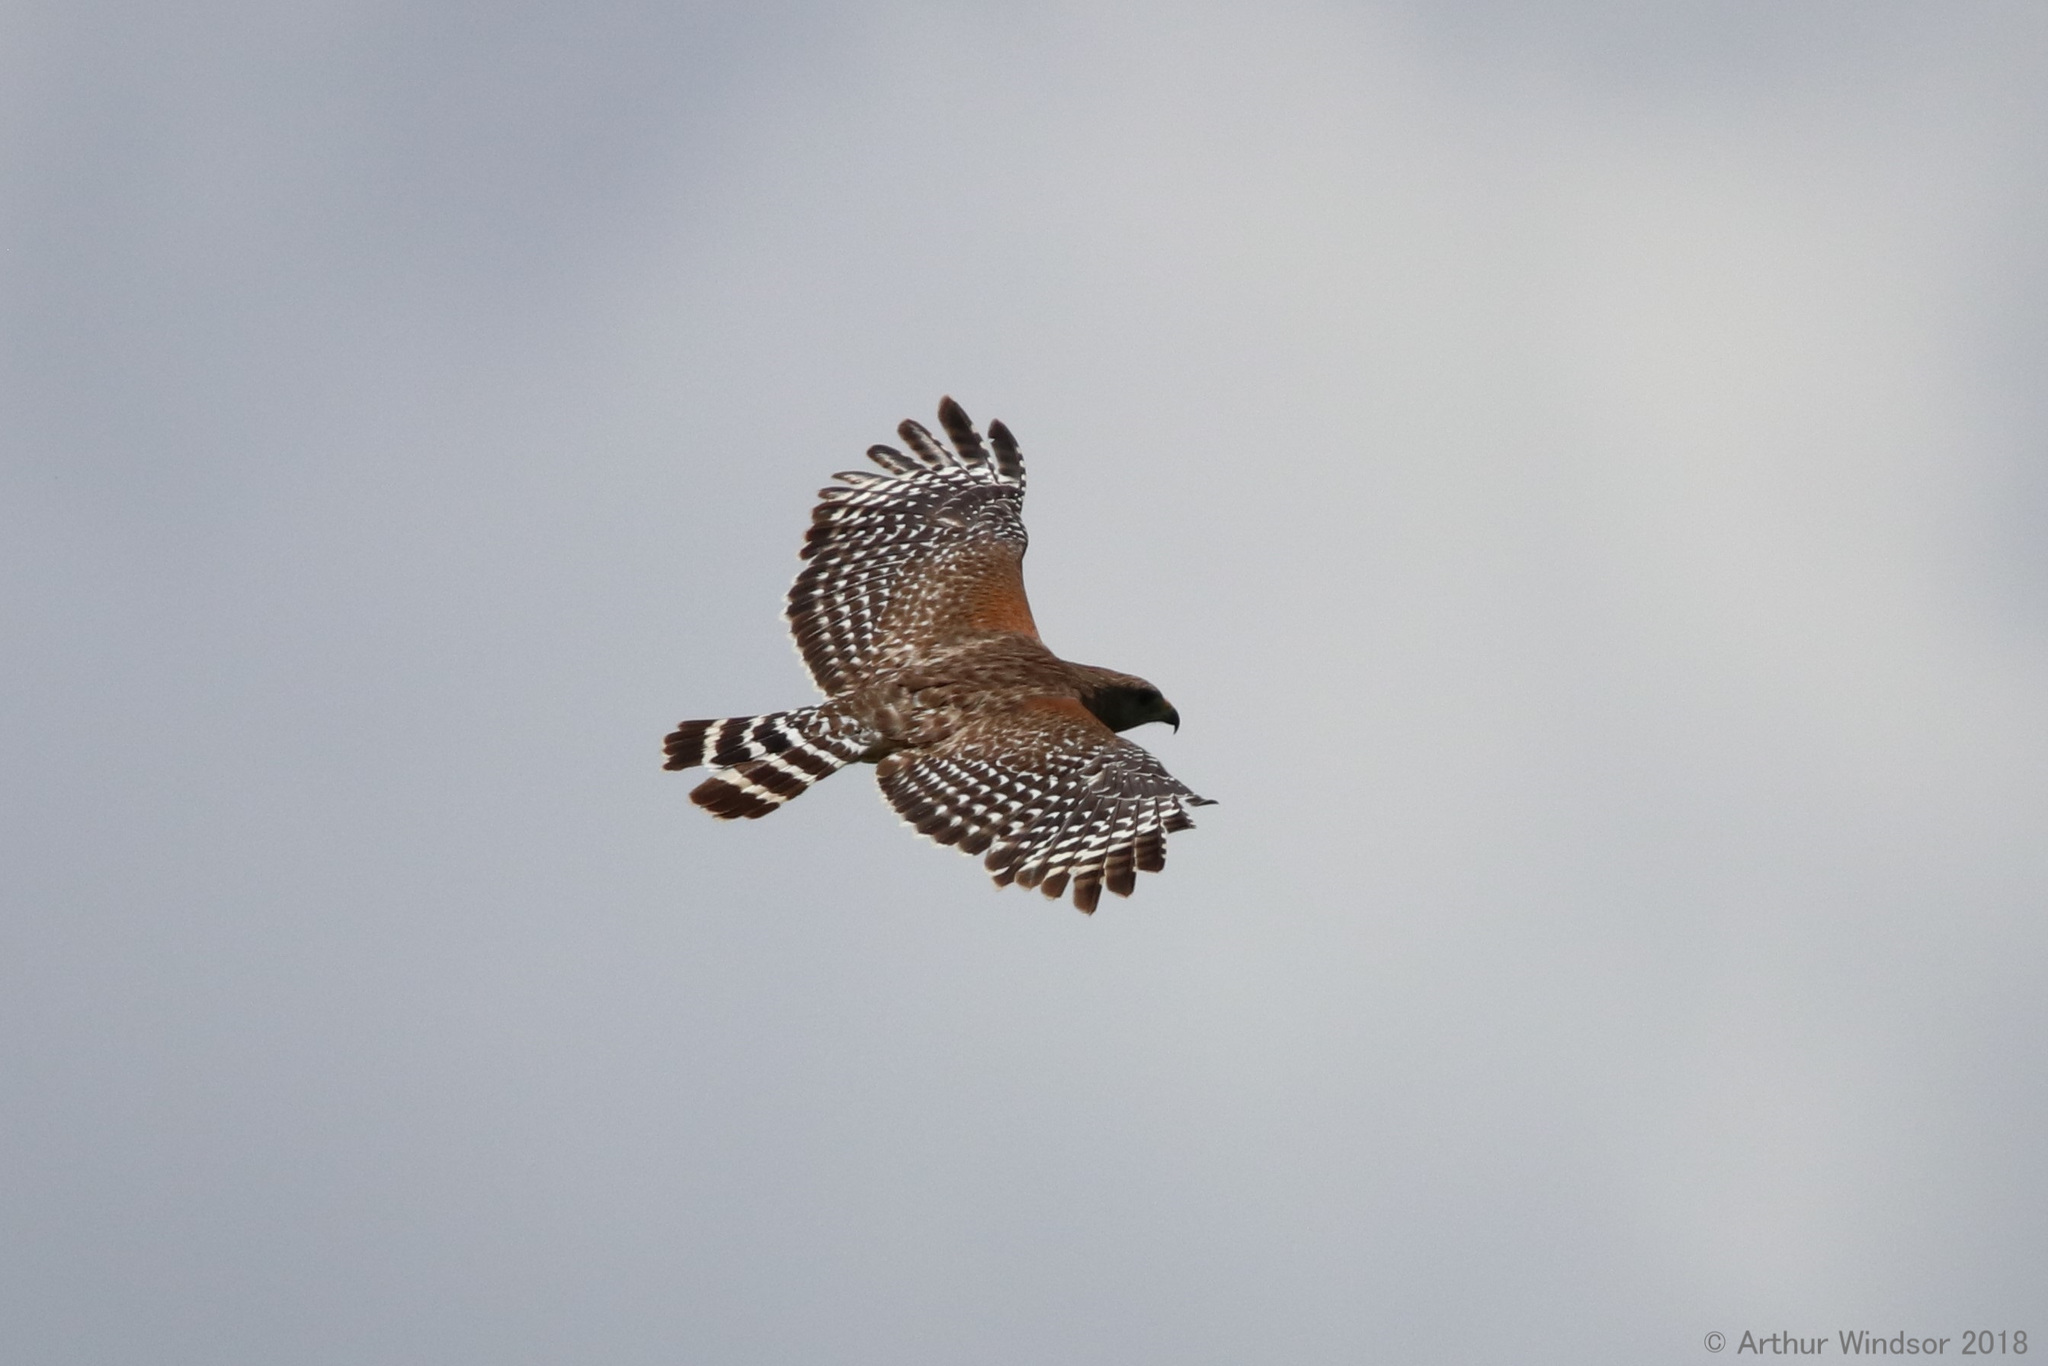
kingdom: Animalia
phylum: Chordata
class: Aves
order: Accipitriformes
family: Accipitridae
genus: Buteo
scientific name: Buteo lineatus
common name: Red-shouldered hawk
